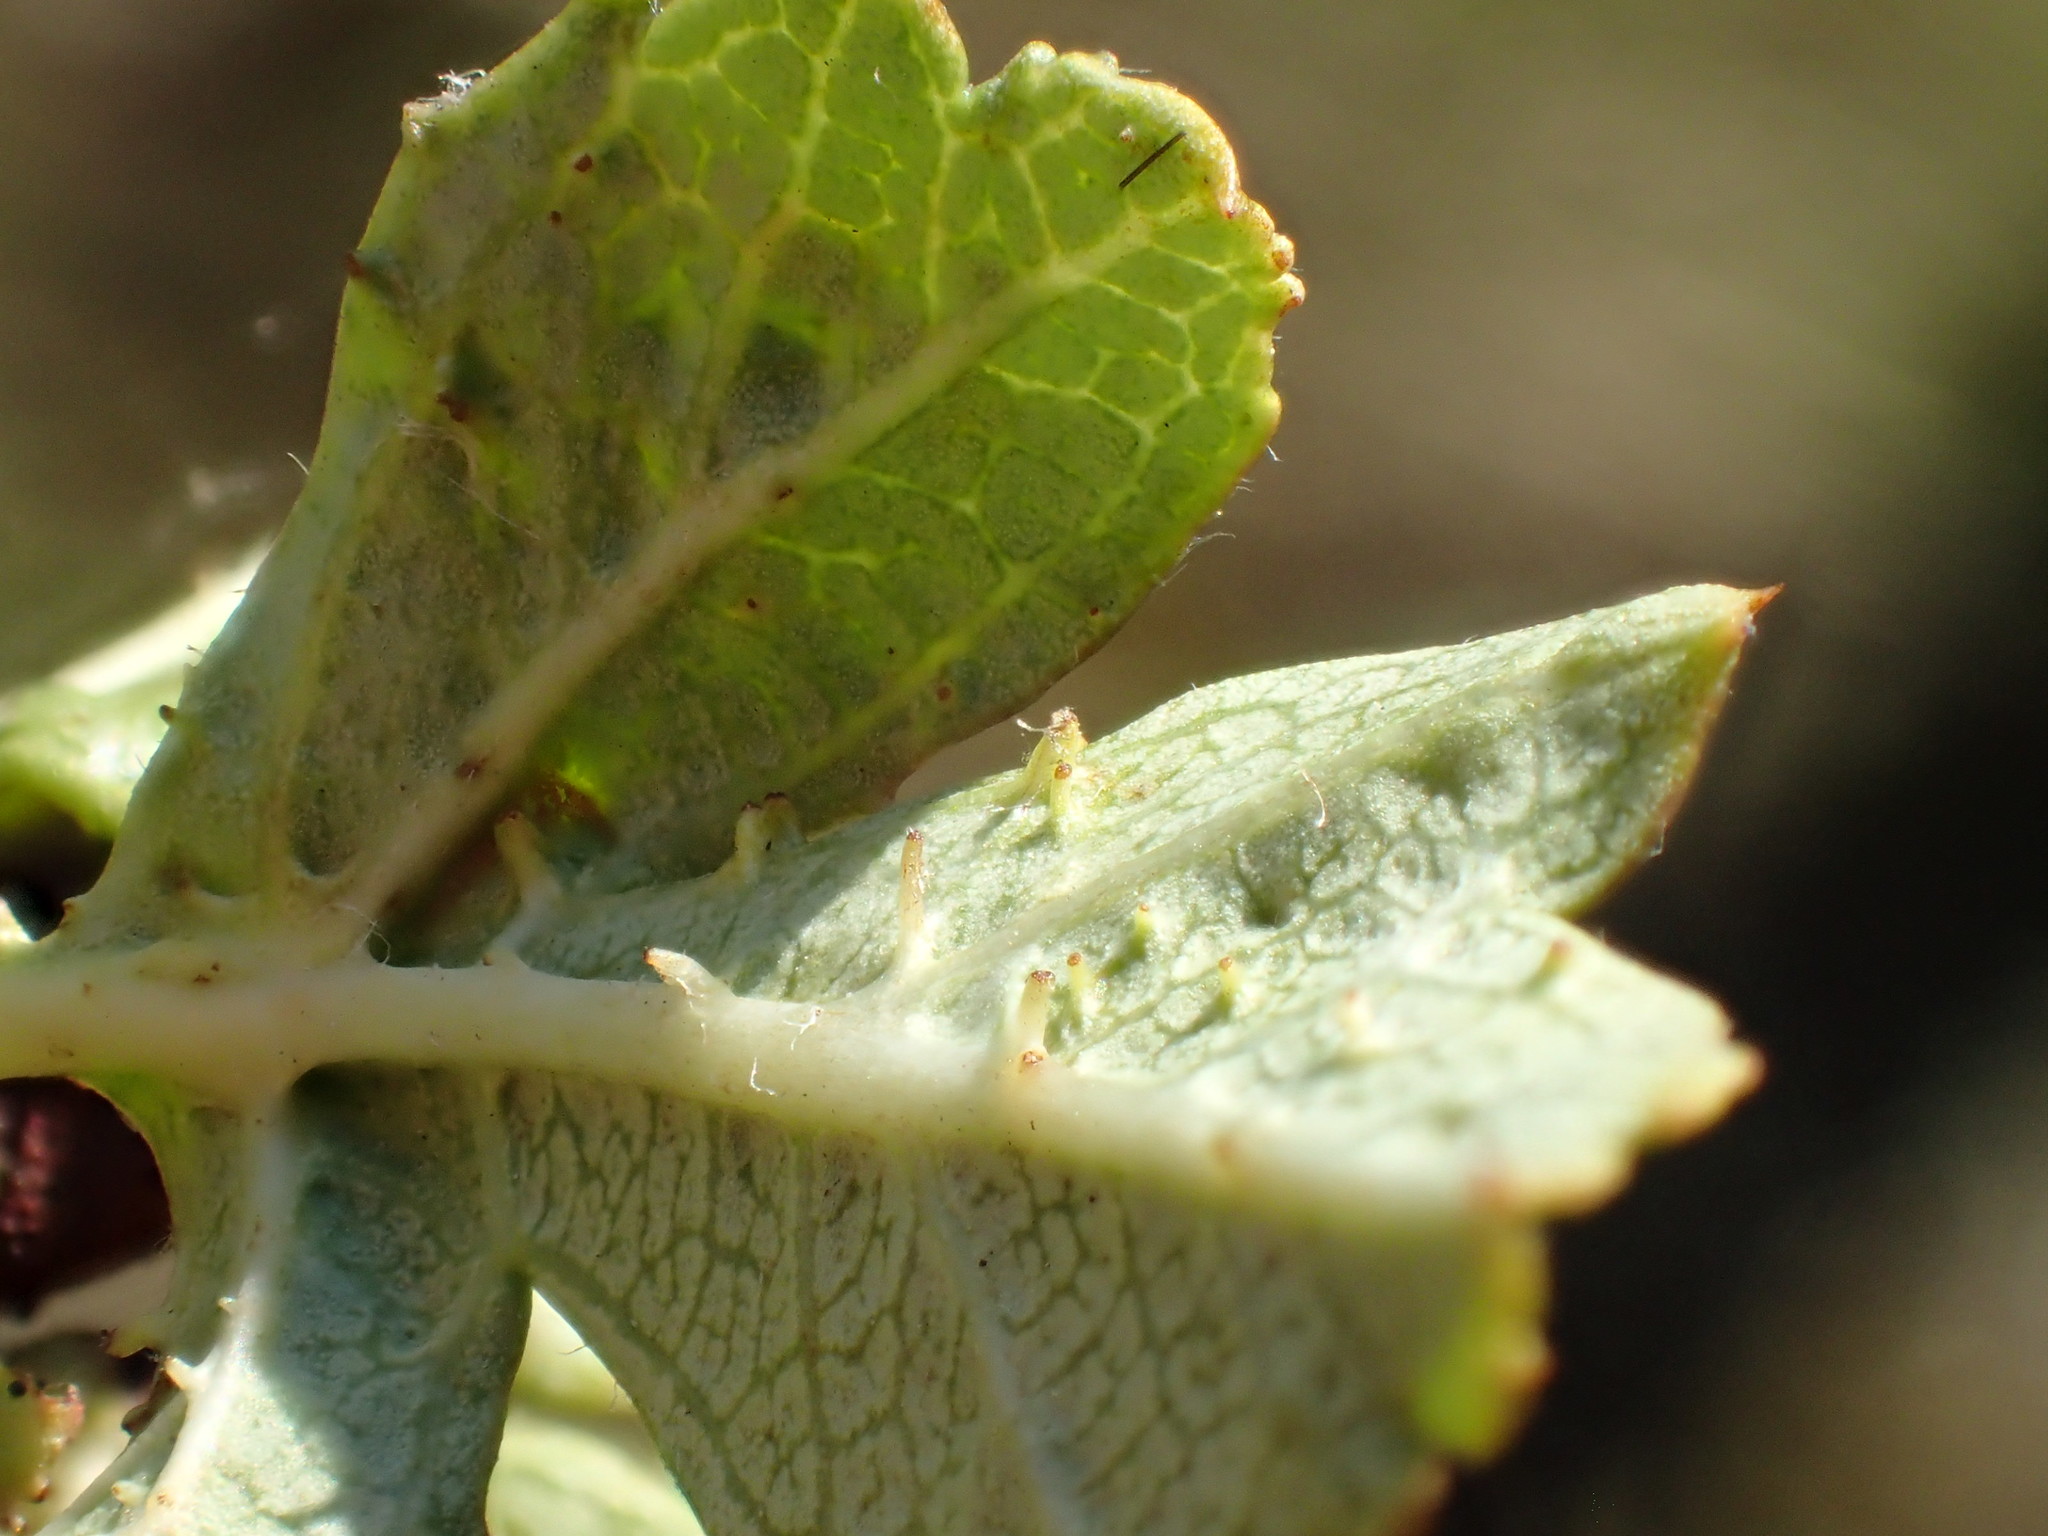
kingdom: Animalia
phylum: Arthropoda
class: Insecta
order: Diptera
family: Cecidomyiidae
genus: Dasineura
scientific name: Dasineura crataegi
